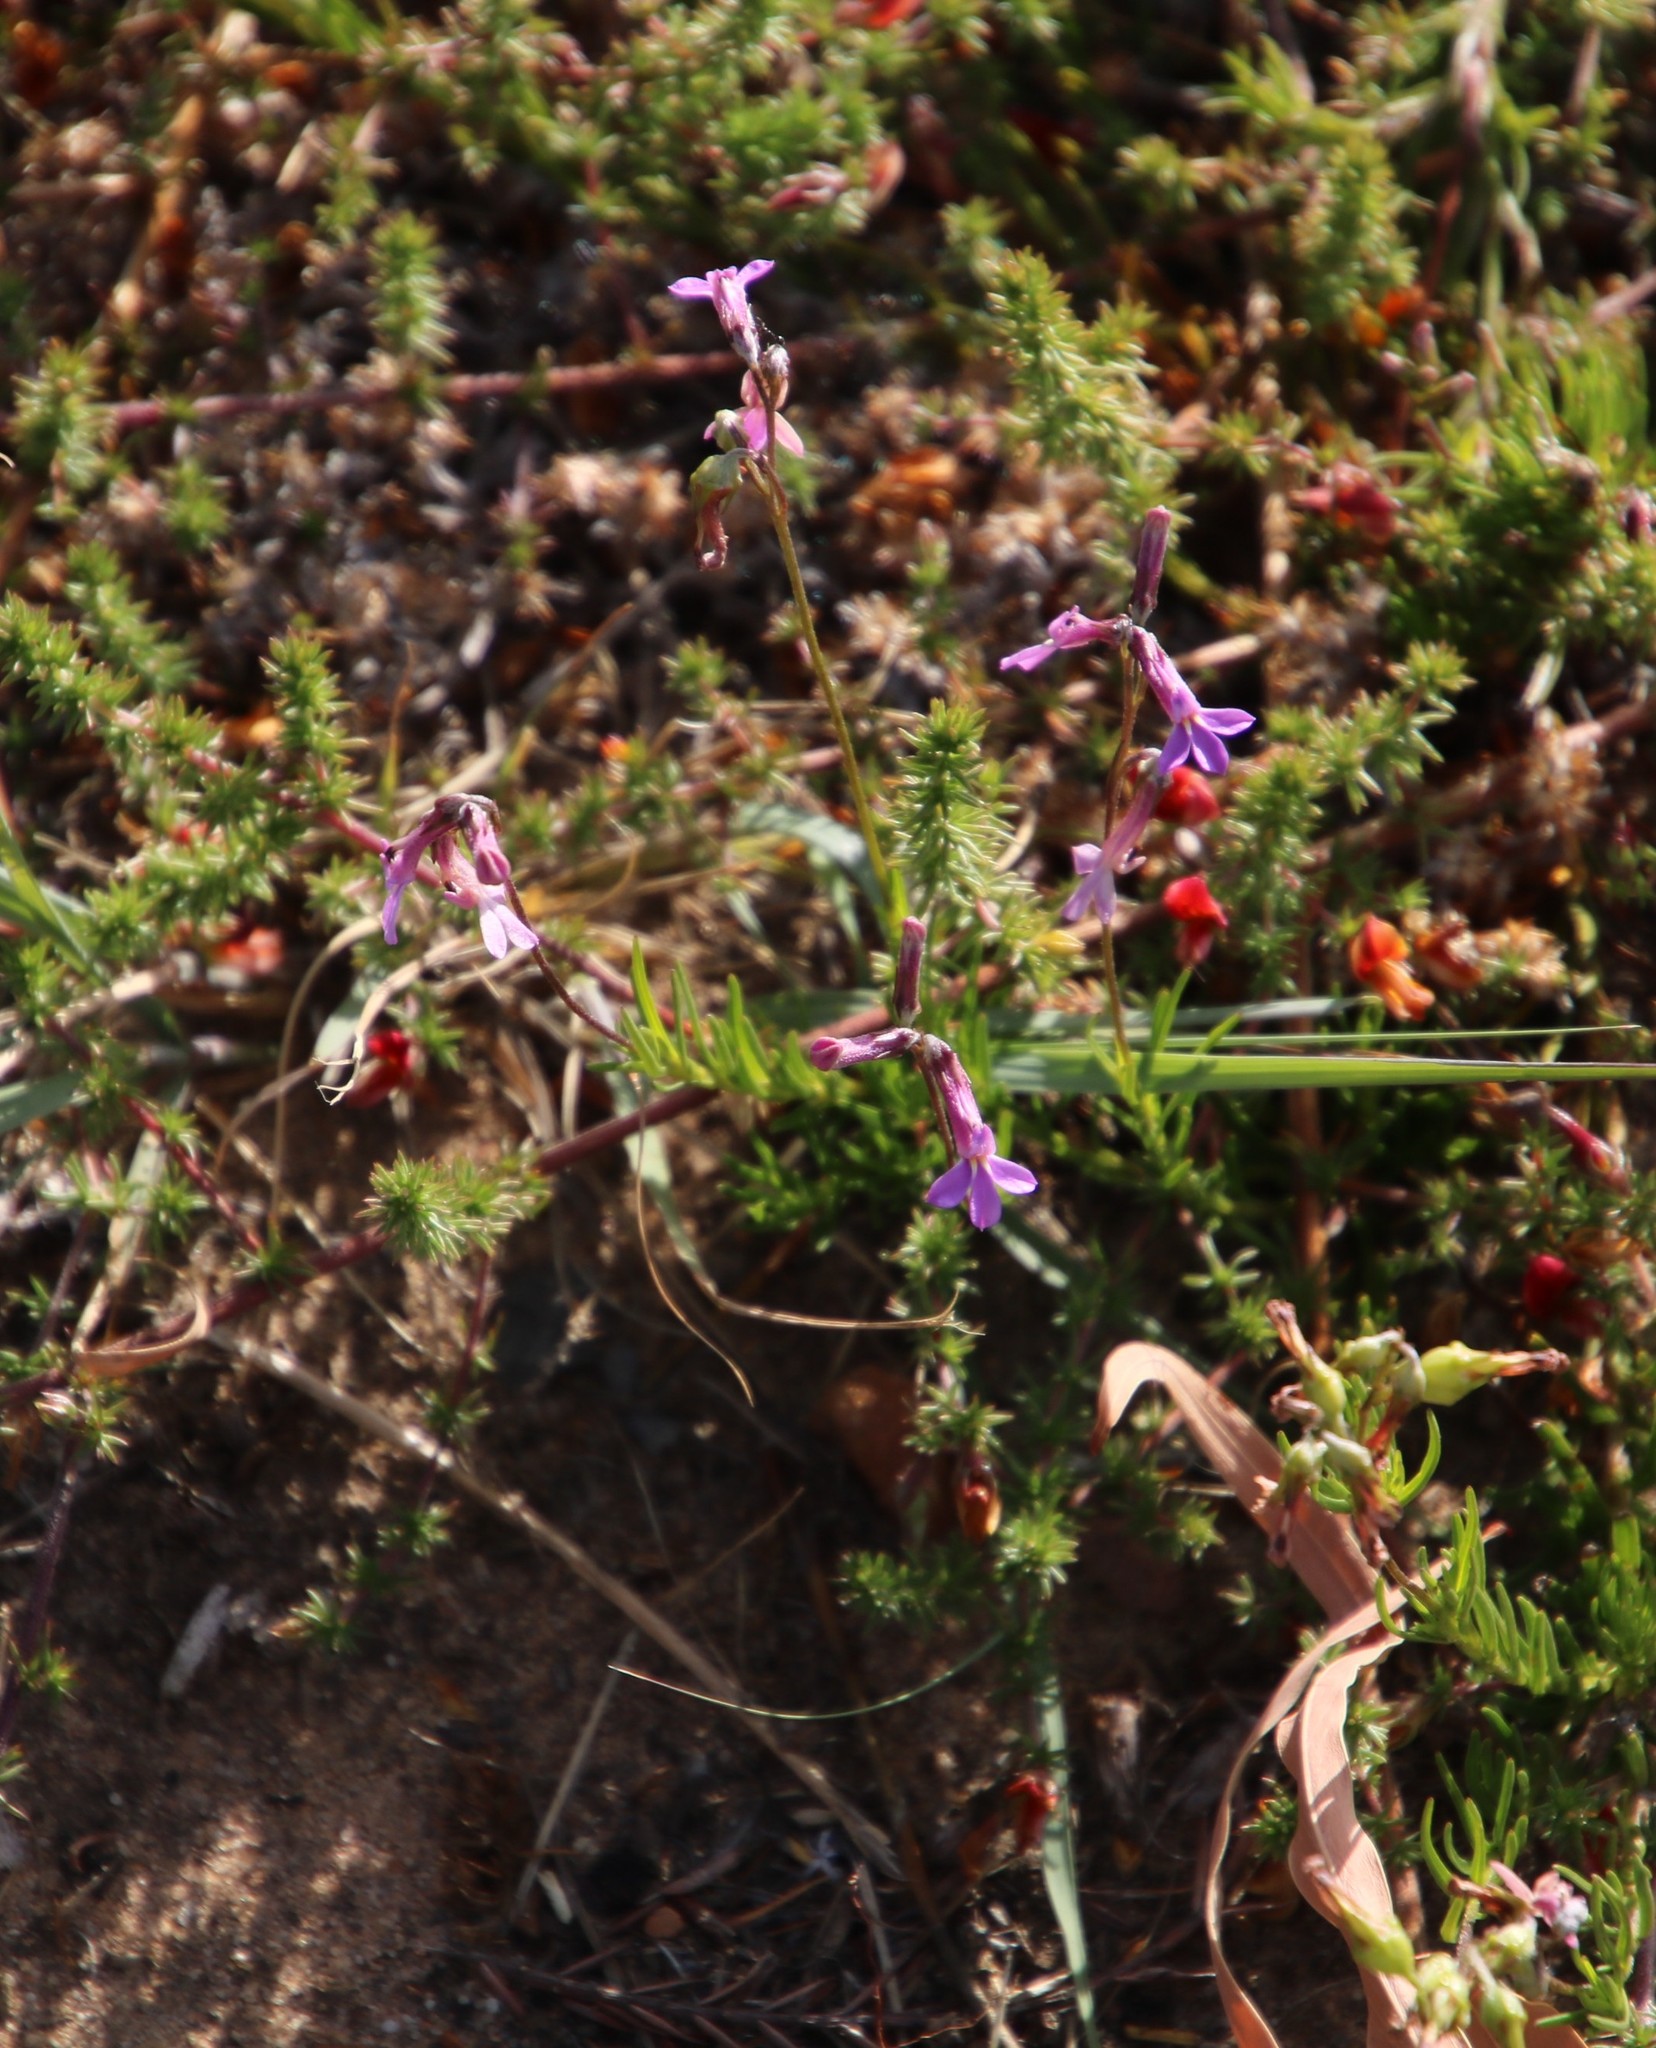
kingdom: Plantae
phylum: Tracheophyta
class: Magnoliopsida
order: Asterales
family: Campanulaceae
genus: Lobelia
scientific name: Lobelia pinifolia
